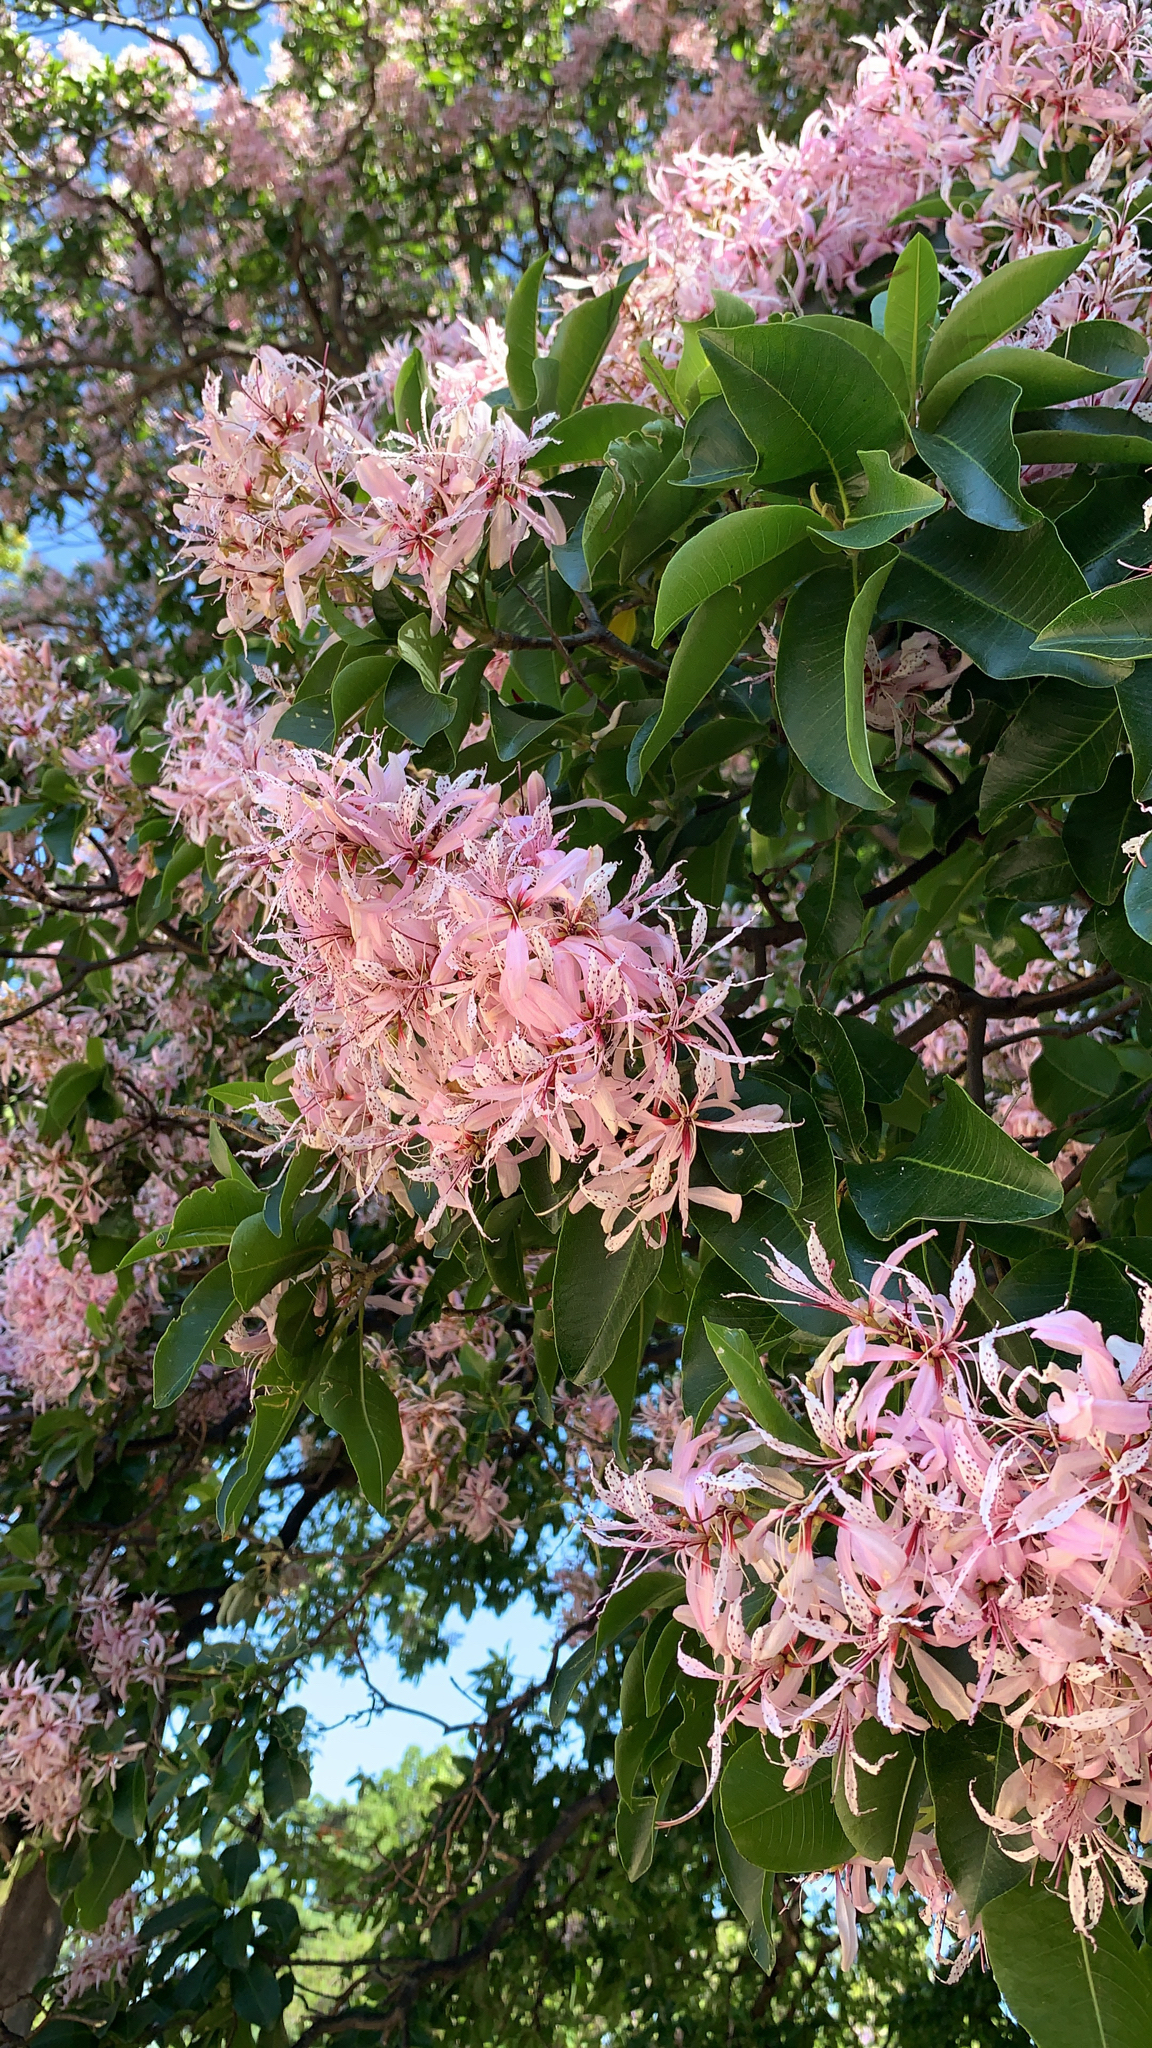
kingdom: Plantae
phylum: Tracheophyta
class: Magnoliopsida
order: Sapindales
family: Rutaceae
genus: Calodendrum
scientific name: Calodendrum capense
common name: Cape chestnut
